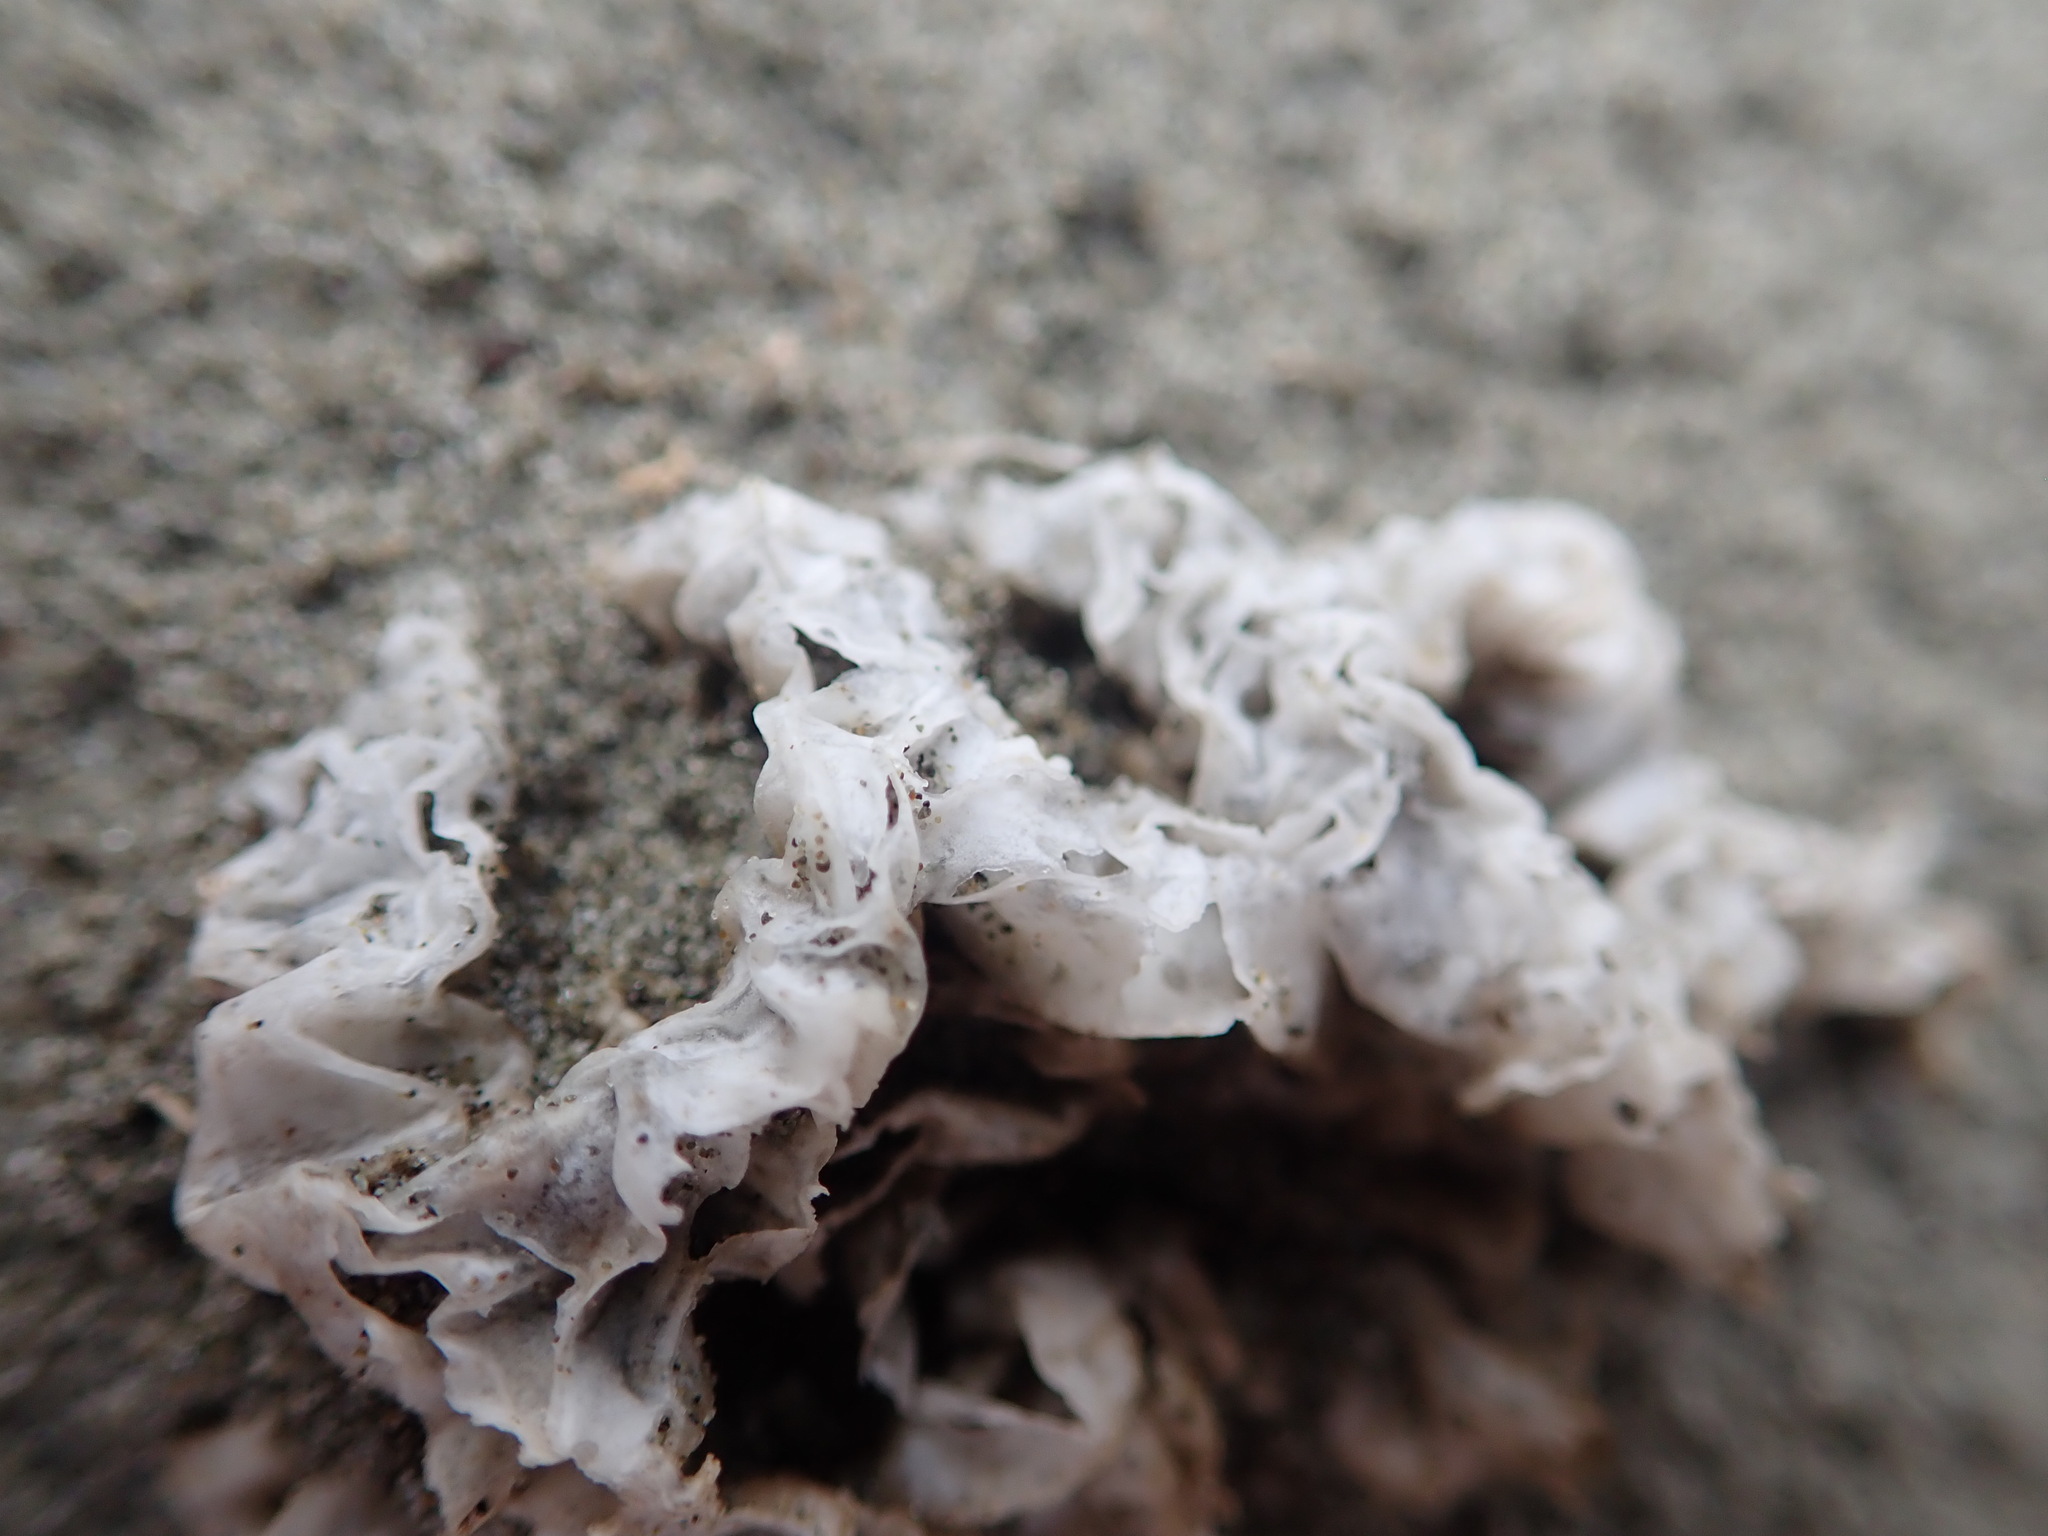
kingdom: Fungi
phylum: Basidiomycota
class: Agaricomycetes
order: Phallales
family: Phallaceae
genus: Ileodictyon
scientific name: Ileodictyon cibarium
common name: Basket fungus
